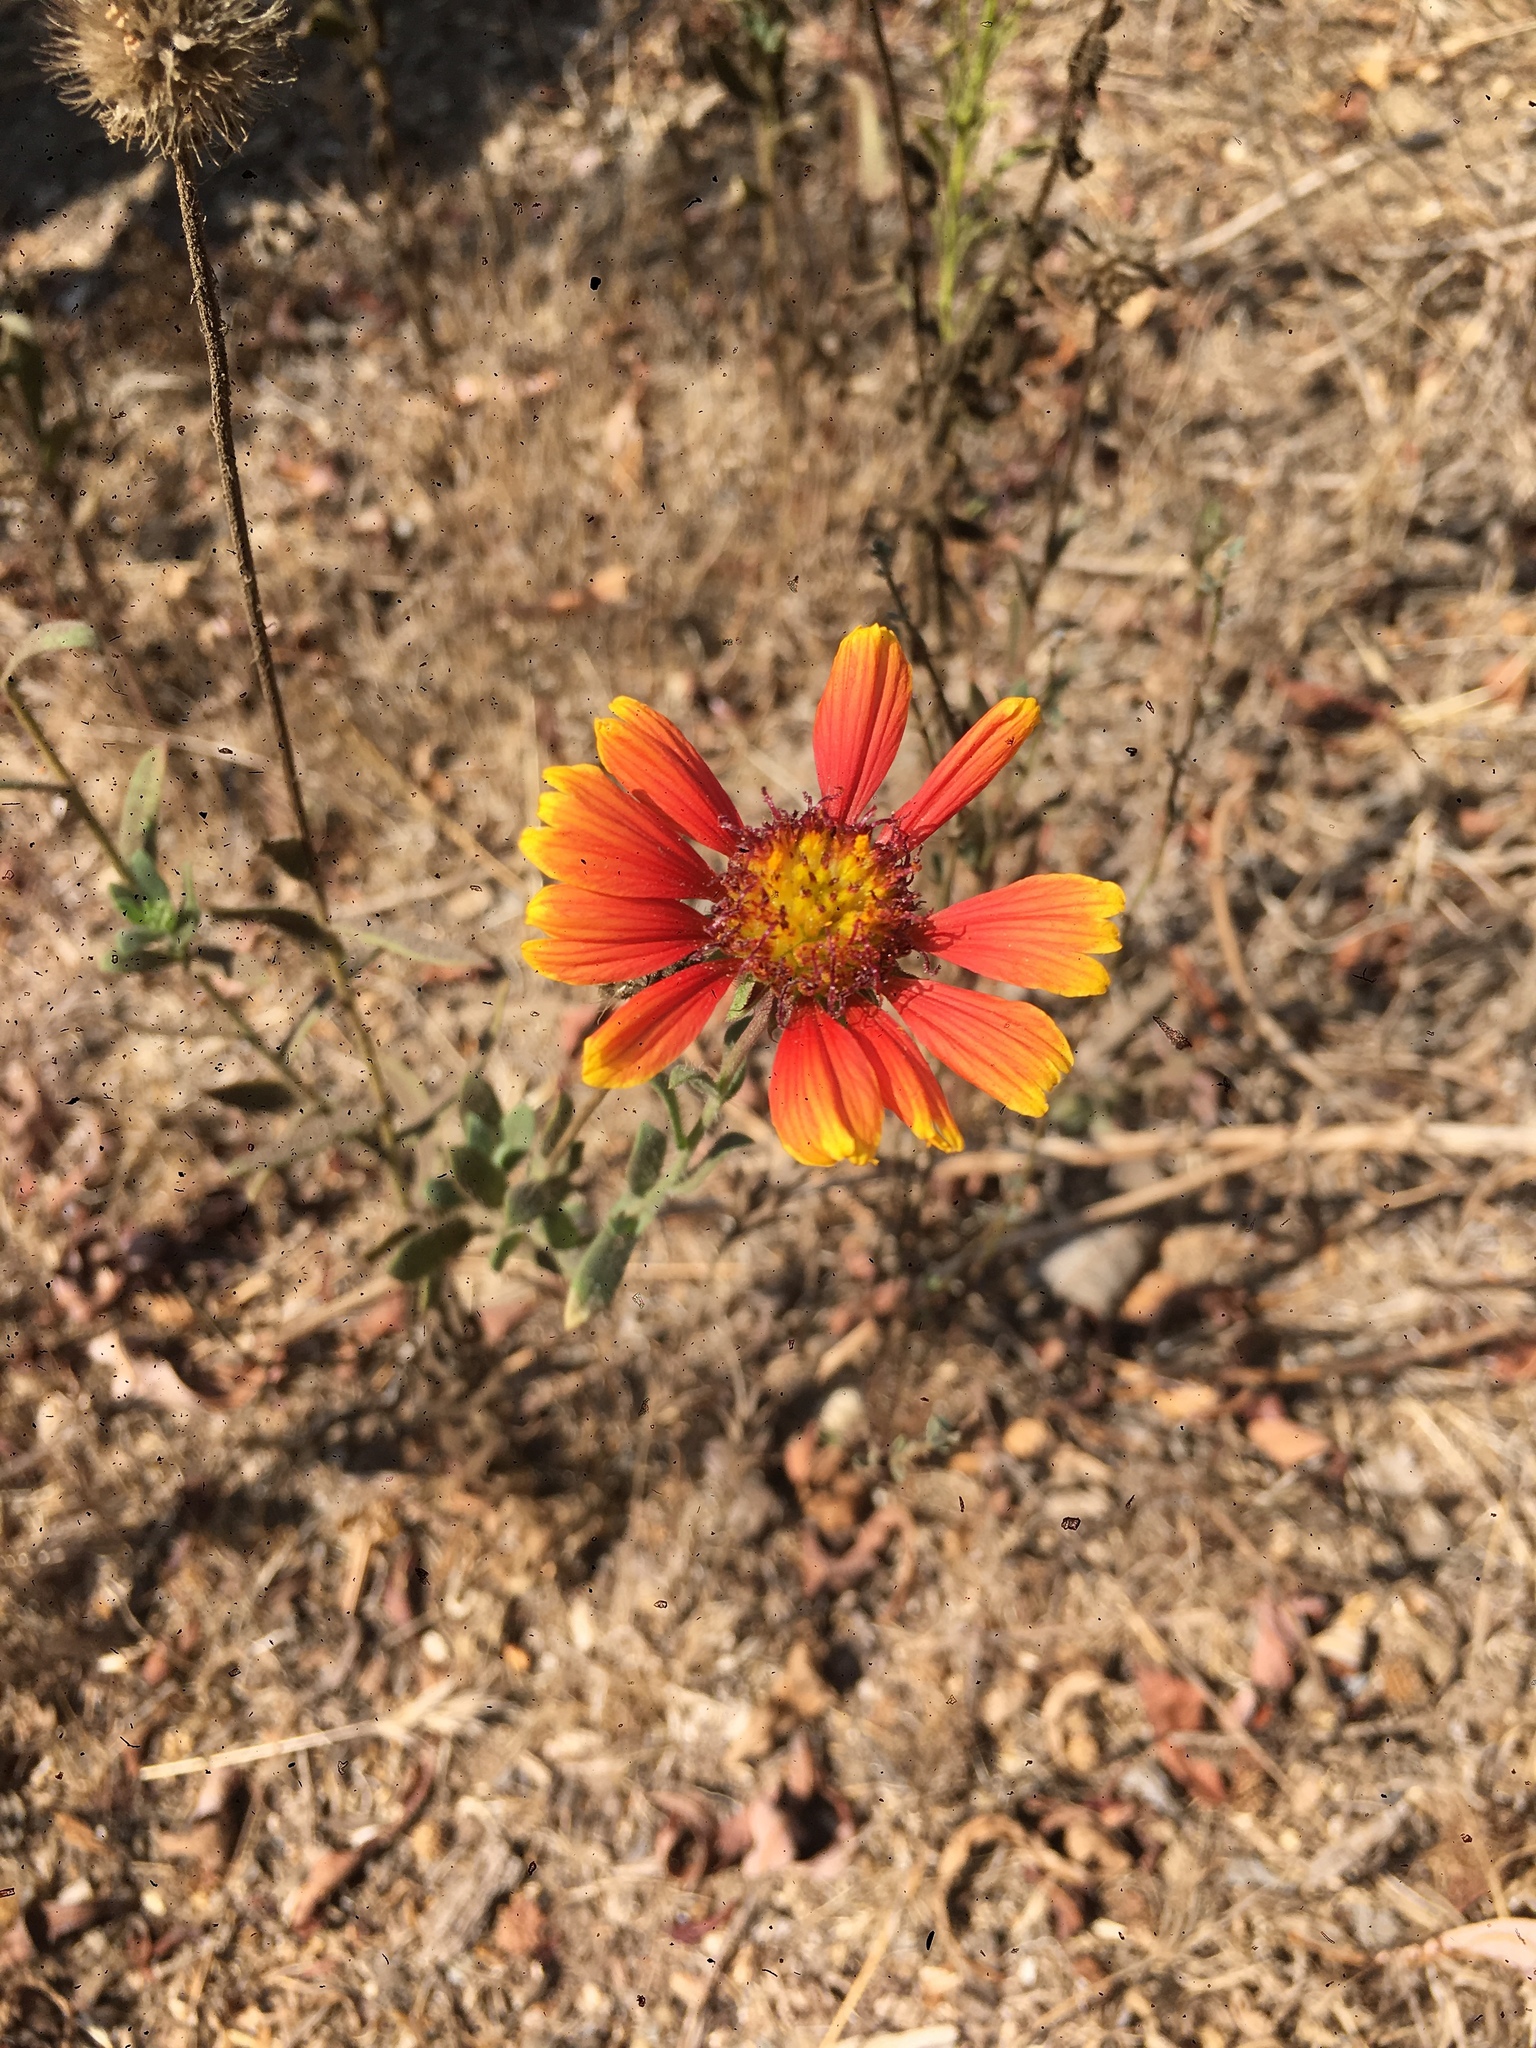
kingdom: Plantae
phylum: Tracheophyta
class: Magnoliopsida
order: Asterales
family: Asteraceae
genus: Gaillardia
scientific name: Gaillardia pulchella
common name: Firewheel
